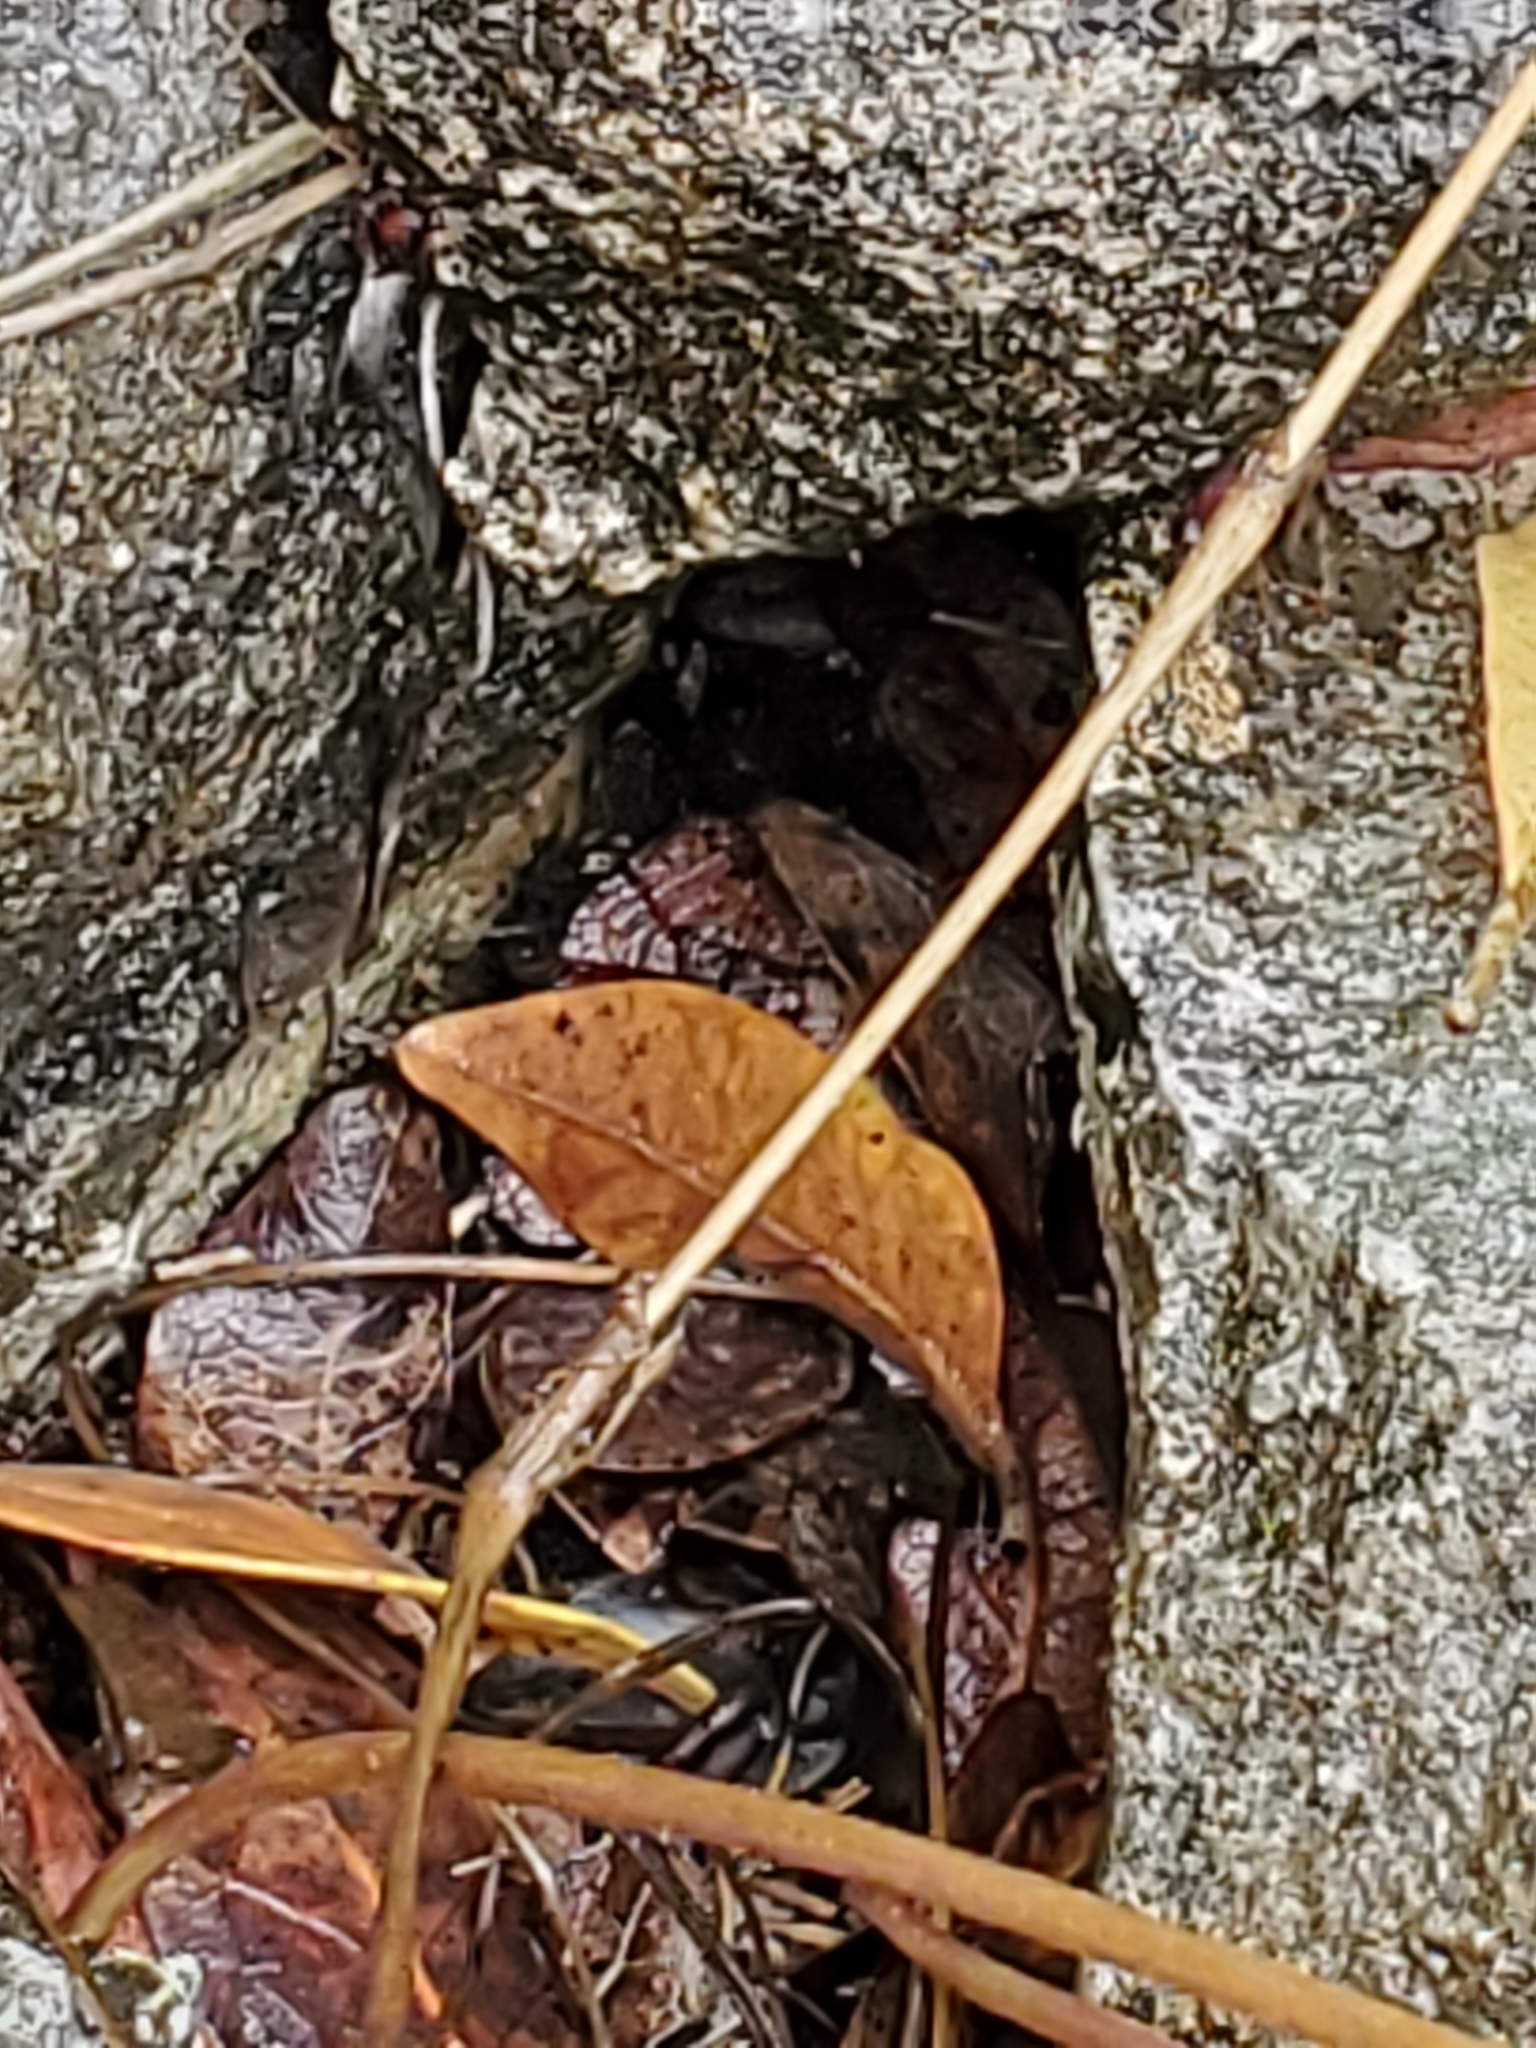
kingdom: Plantae
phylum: Tracheophyta
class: Magnoliopsida
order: Ranunculales
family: Ranunculaceae
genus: Anemone
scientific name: Anemone edwardsiana
